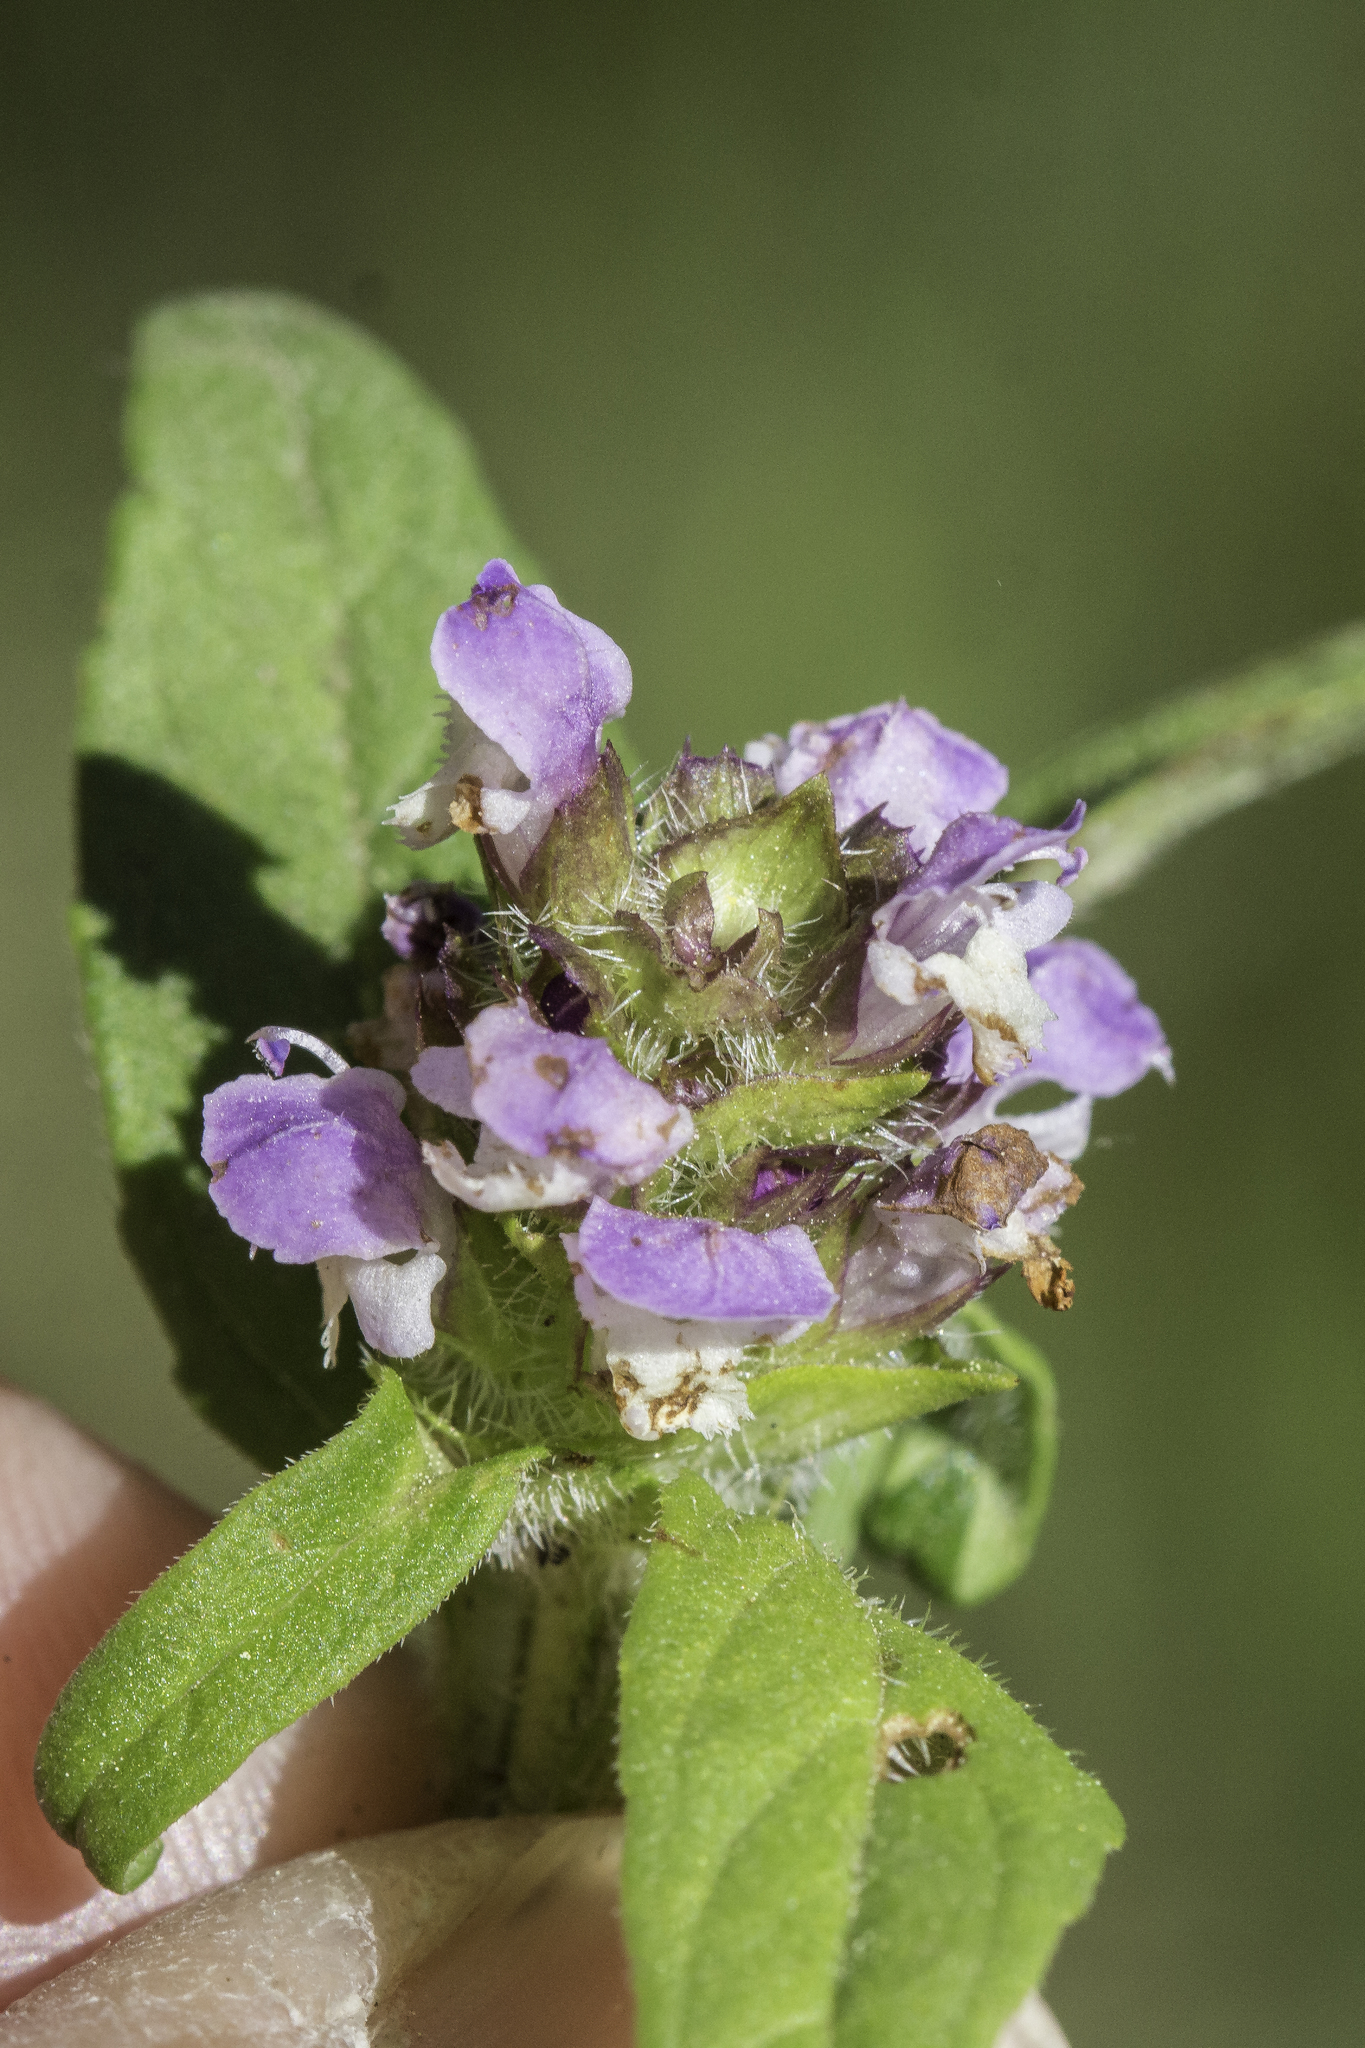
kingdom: Plantae
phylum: Tracheophyta
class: Magnoliopsida
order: Lamiales
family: Lamiaceae
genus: Prunella
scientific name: Prunella vulgaris
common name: Heal-all
